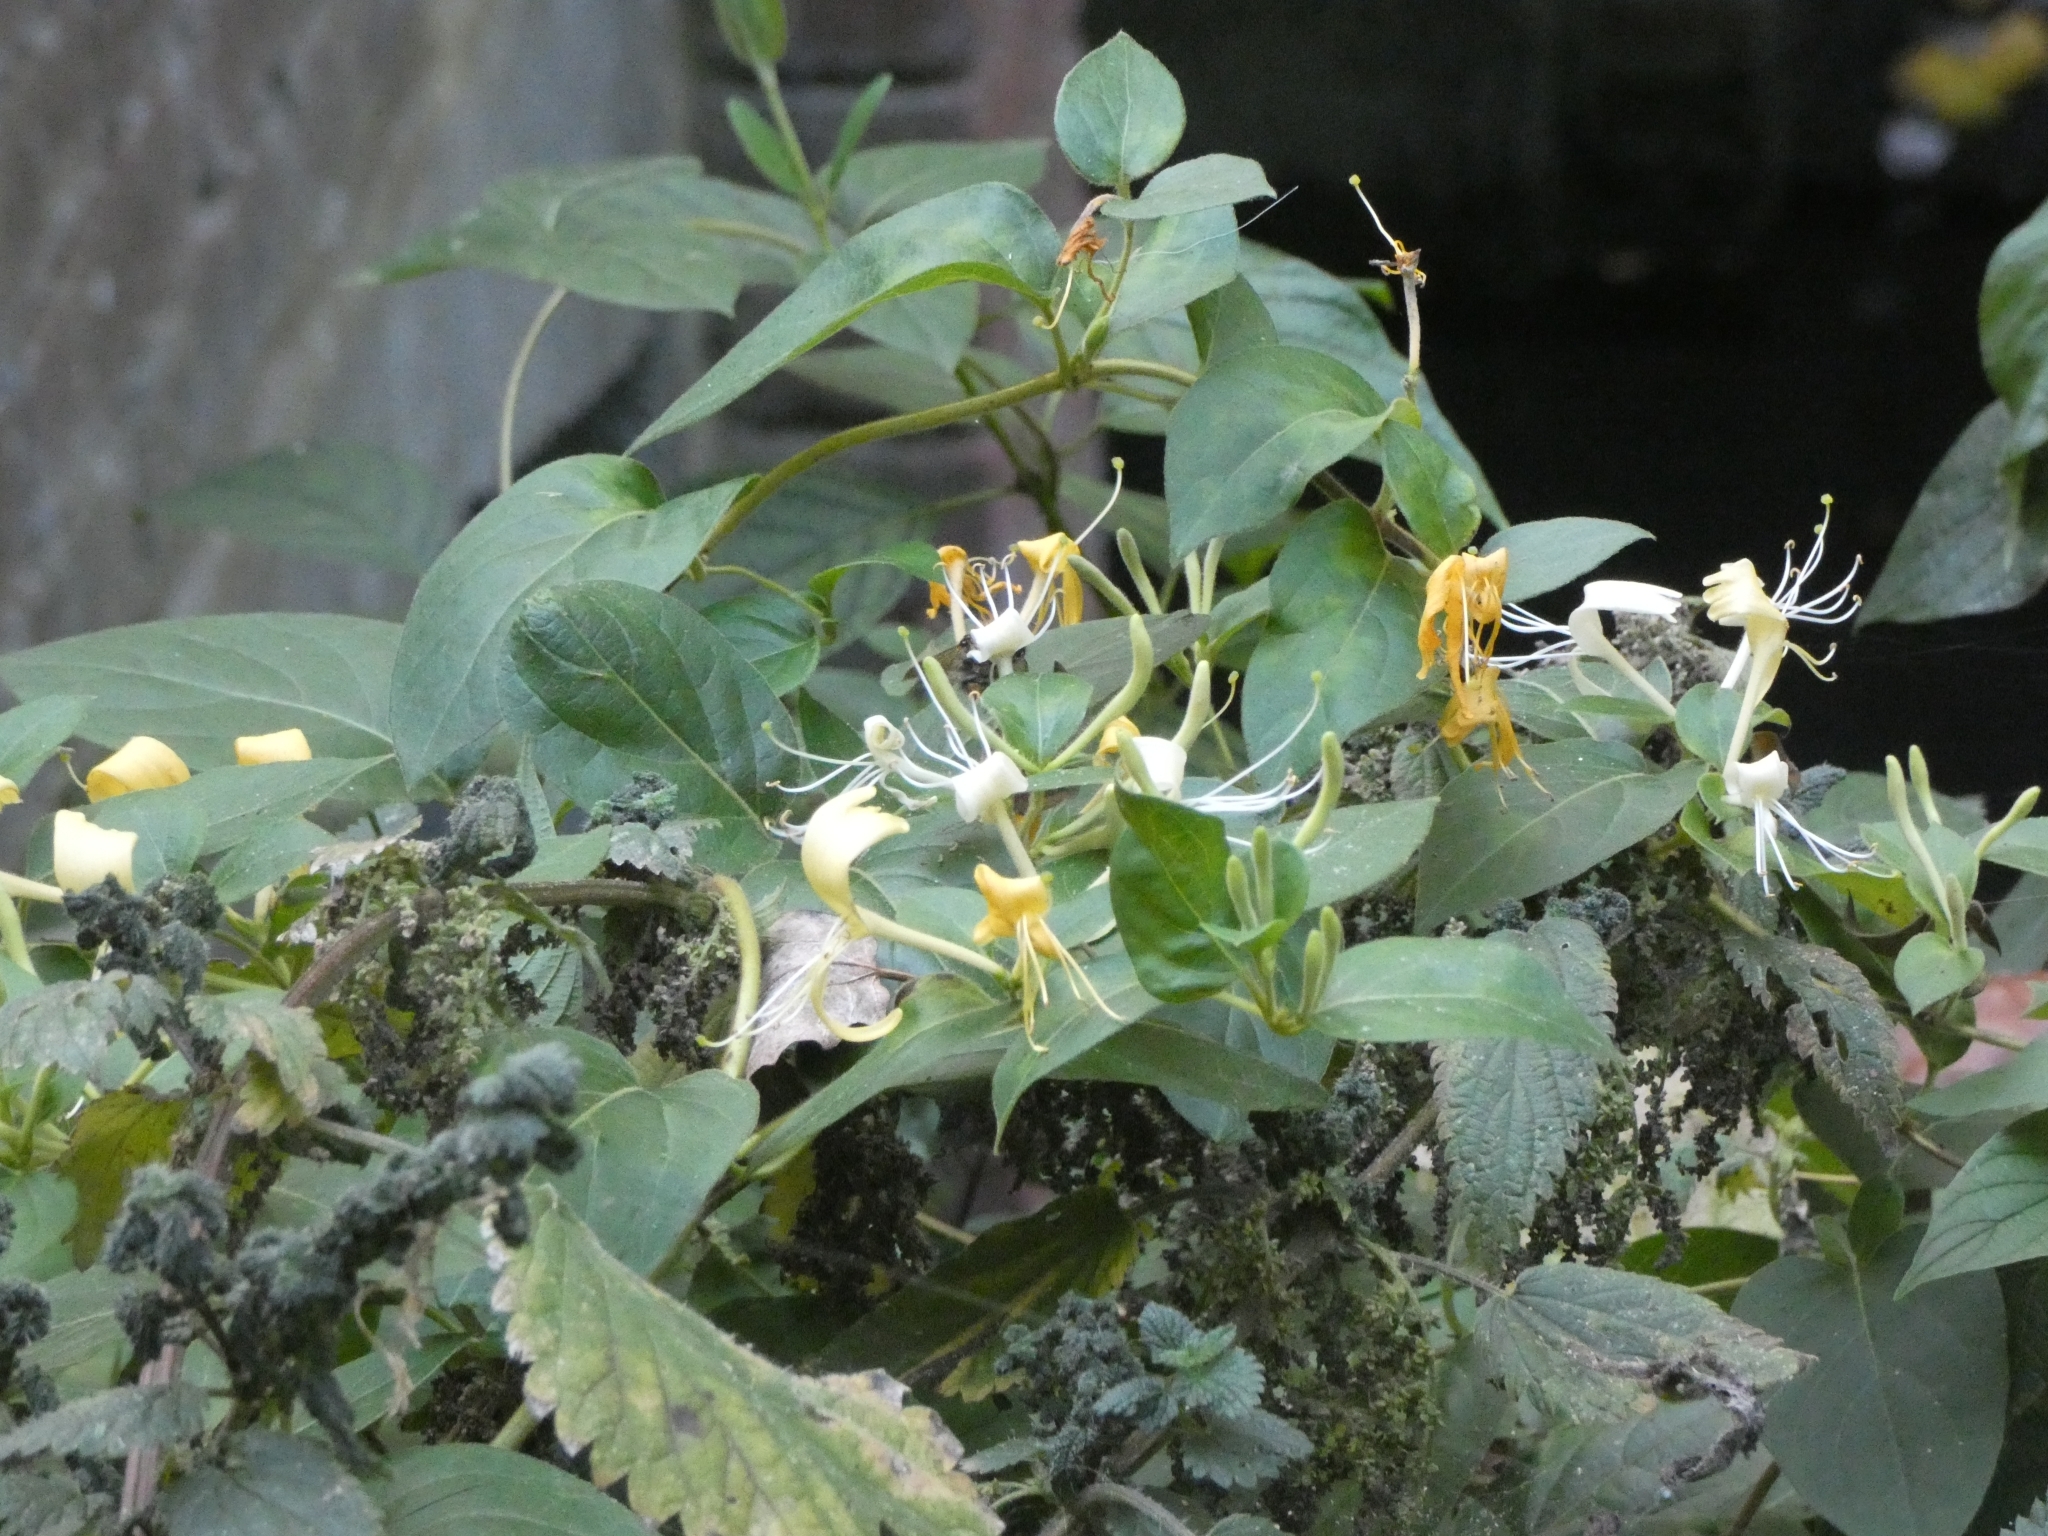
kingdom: Plantae
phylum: Tracheophyta
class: Magnoliopsida
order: Dipsacales
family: Caprifoliaceae
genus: Lonicera
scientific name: Lonicera japonica
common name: Japanese honeysuckle
